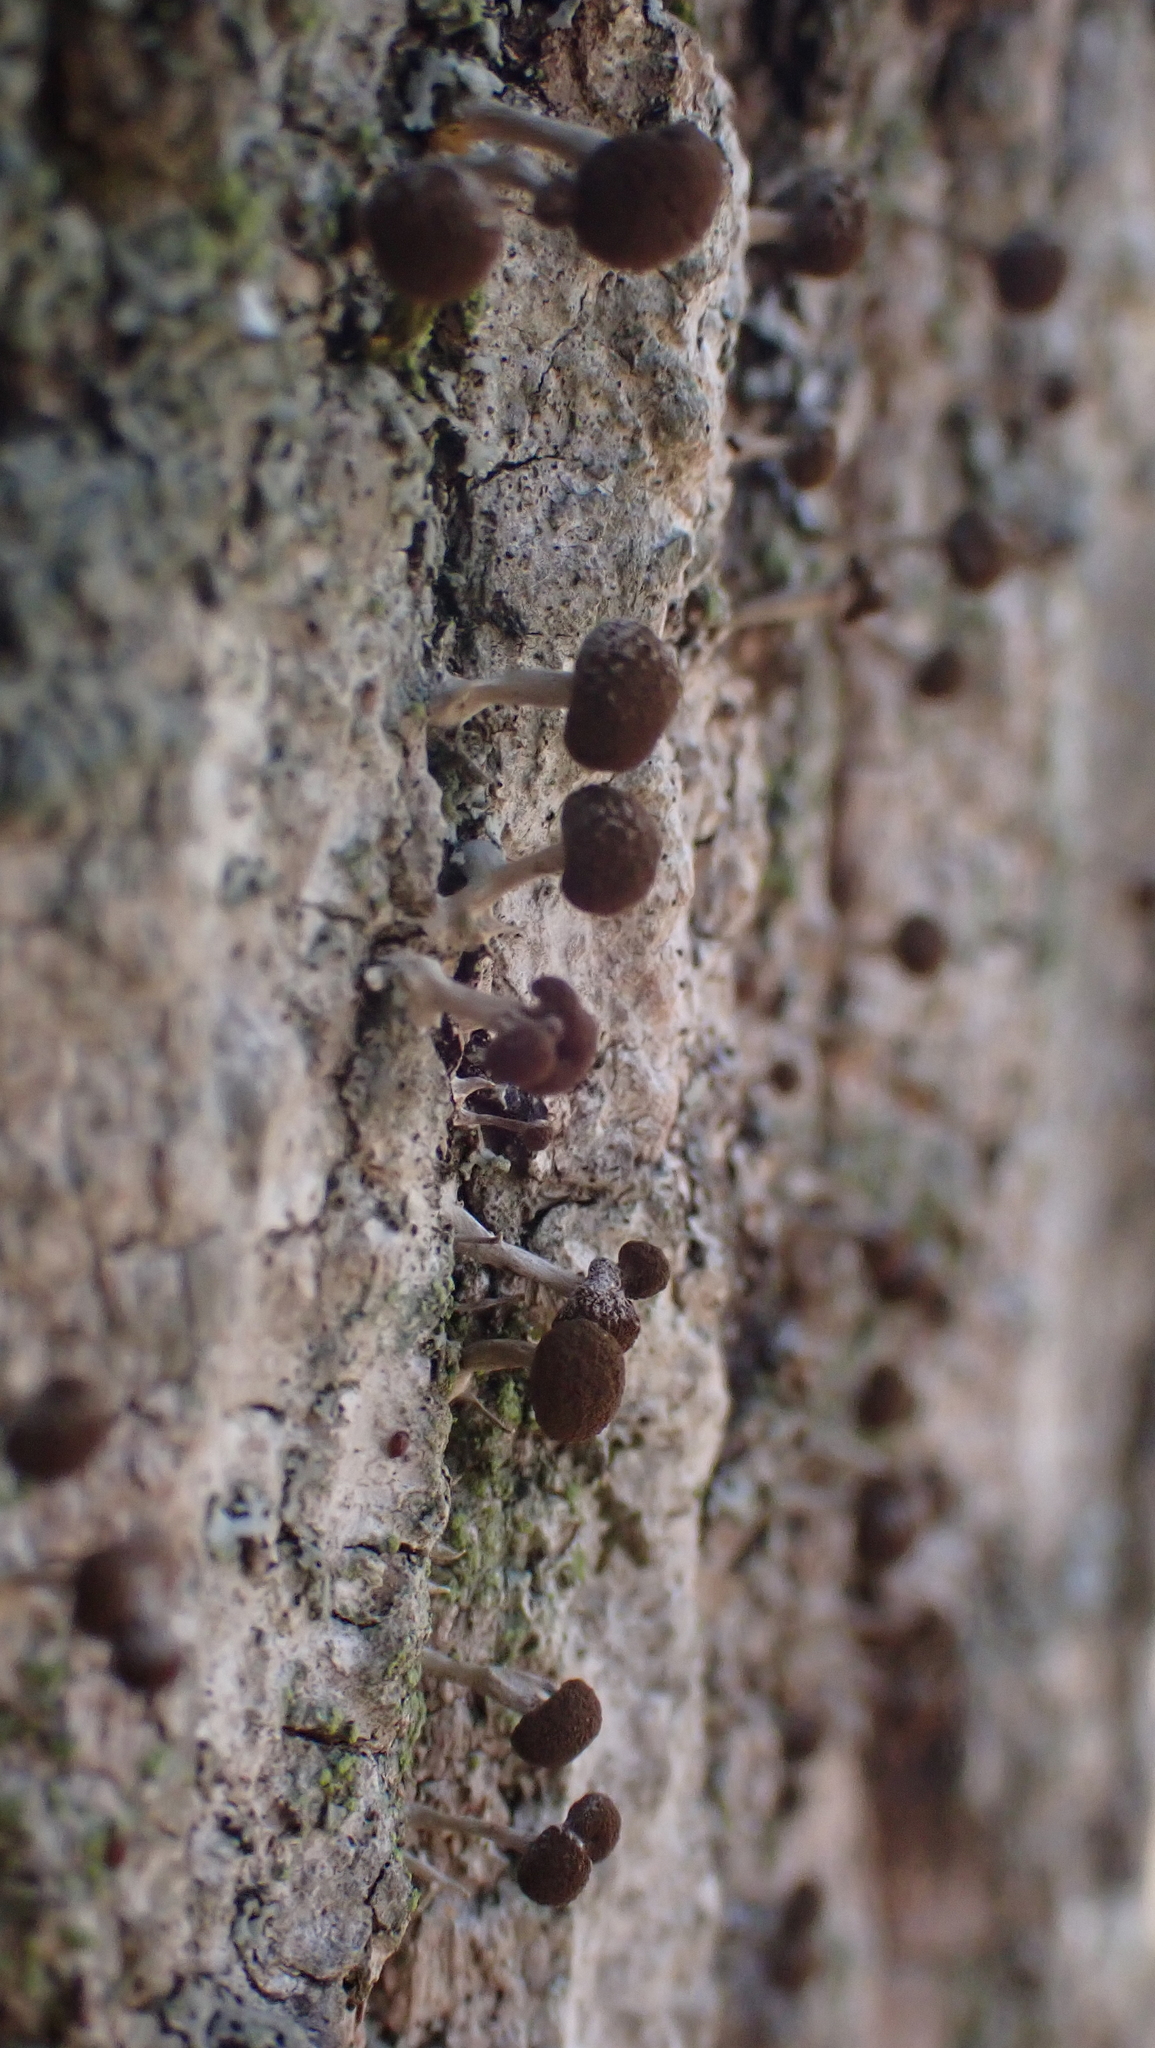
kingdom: Fungi
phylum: Basidiomycota
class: Atractiellomycetes
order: Atractiellales
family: Phleogenaceae
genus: Phleogena
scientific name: Phleogena faginea
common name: Fenugreek stalkball
